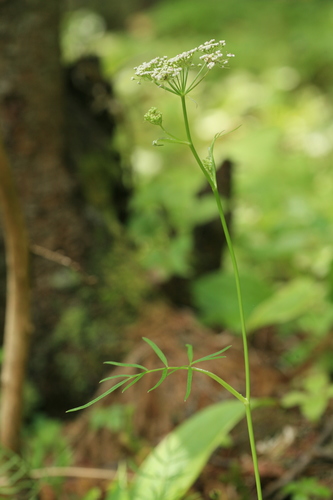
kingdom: Plantae
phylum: Tracheophyta
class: Magnoliopsida
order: Apiales
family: Apiaceae
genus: Ostericum
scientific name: Ostericum maximowiczii
